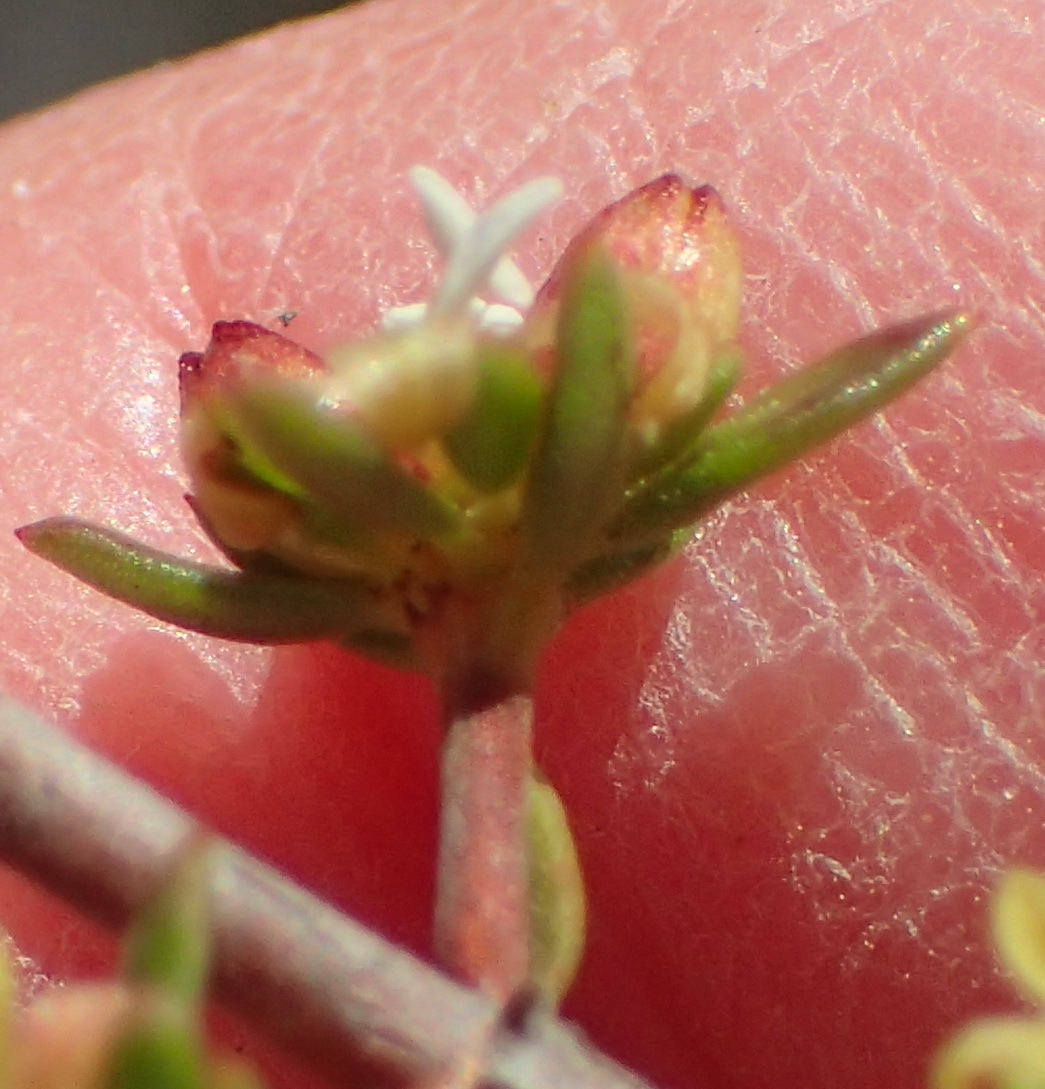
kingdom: Plantae
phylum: Tracheophyta
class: Magnoliopsida
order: Gentianales
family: Rubiaceae
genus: Anthospermum
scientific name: Anthospermum spathulatum
